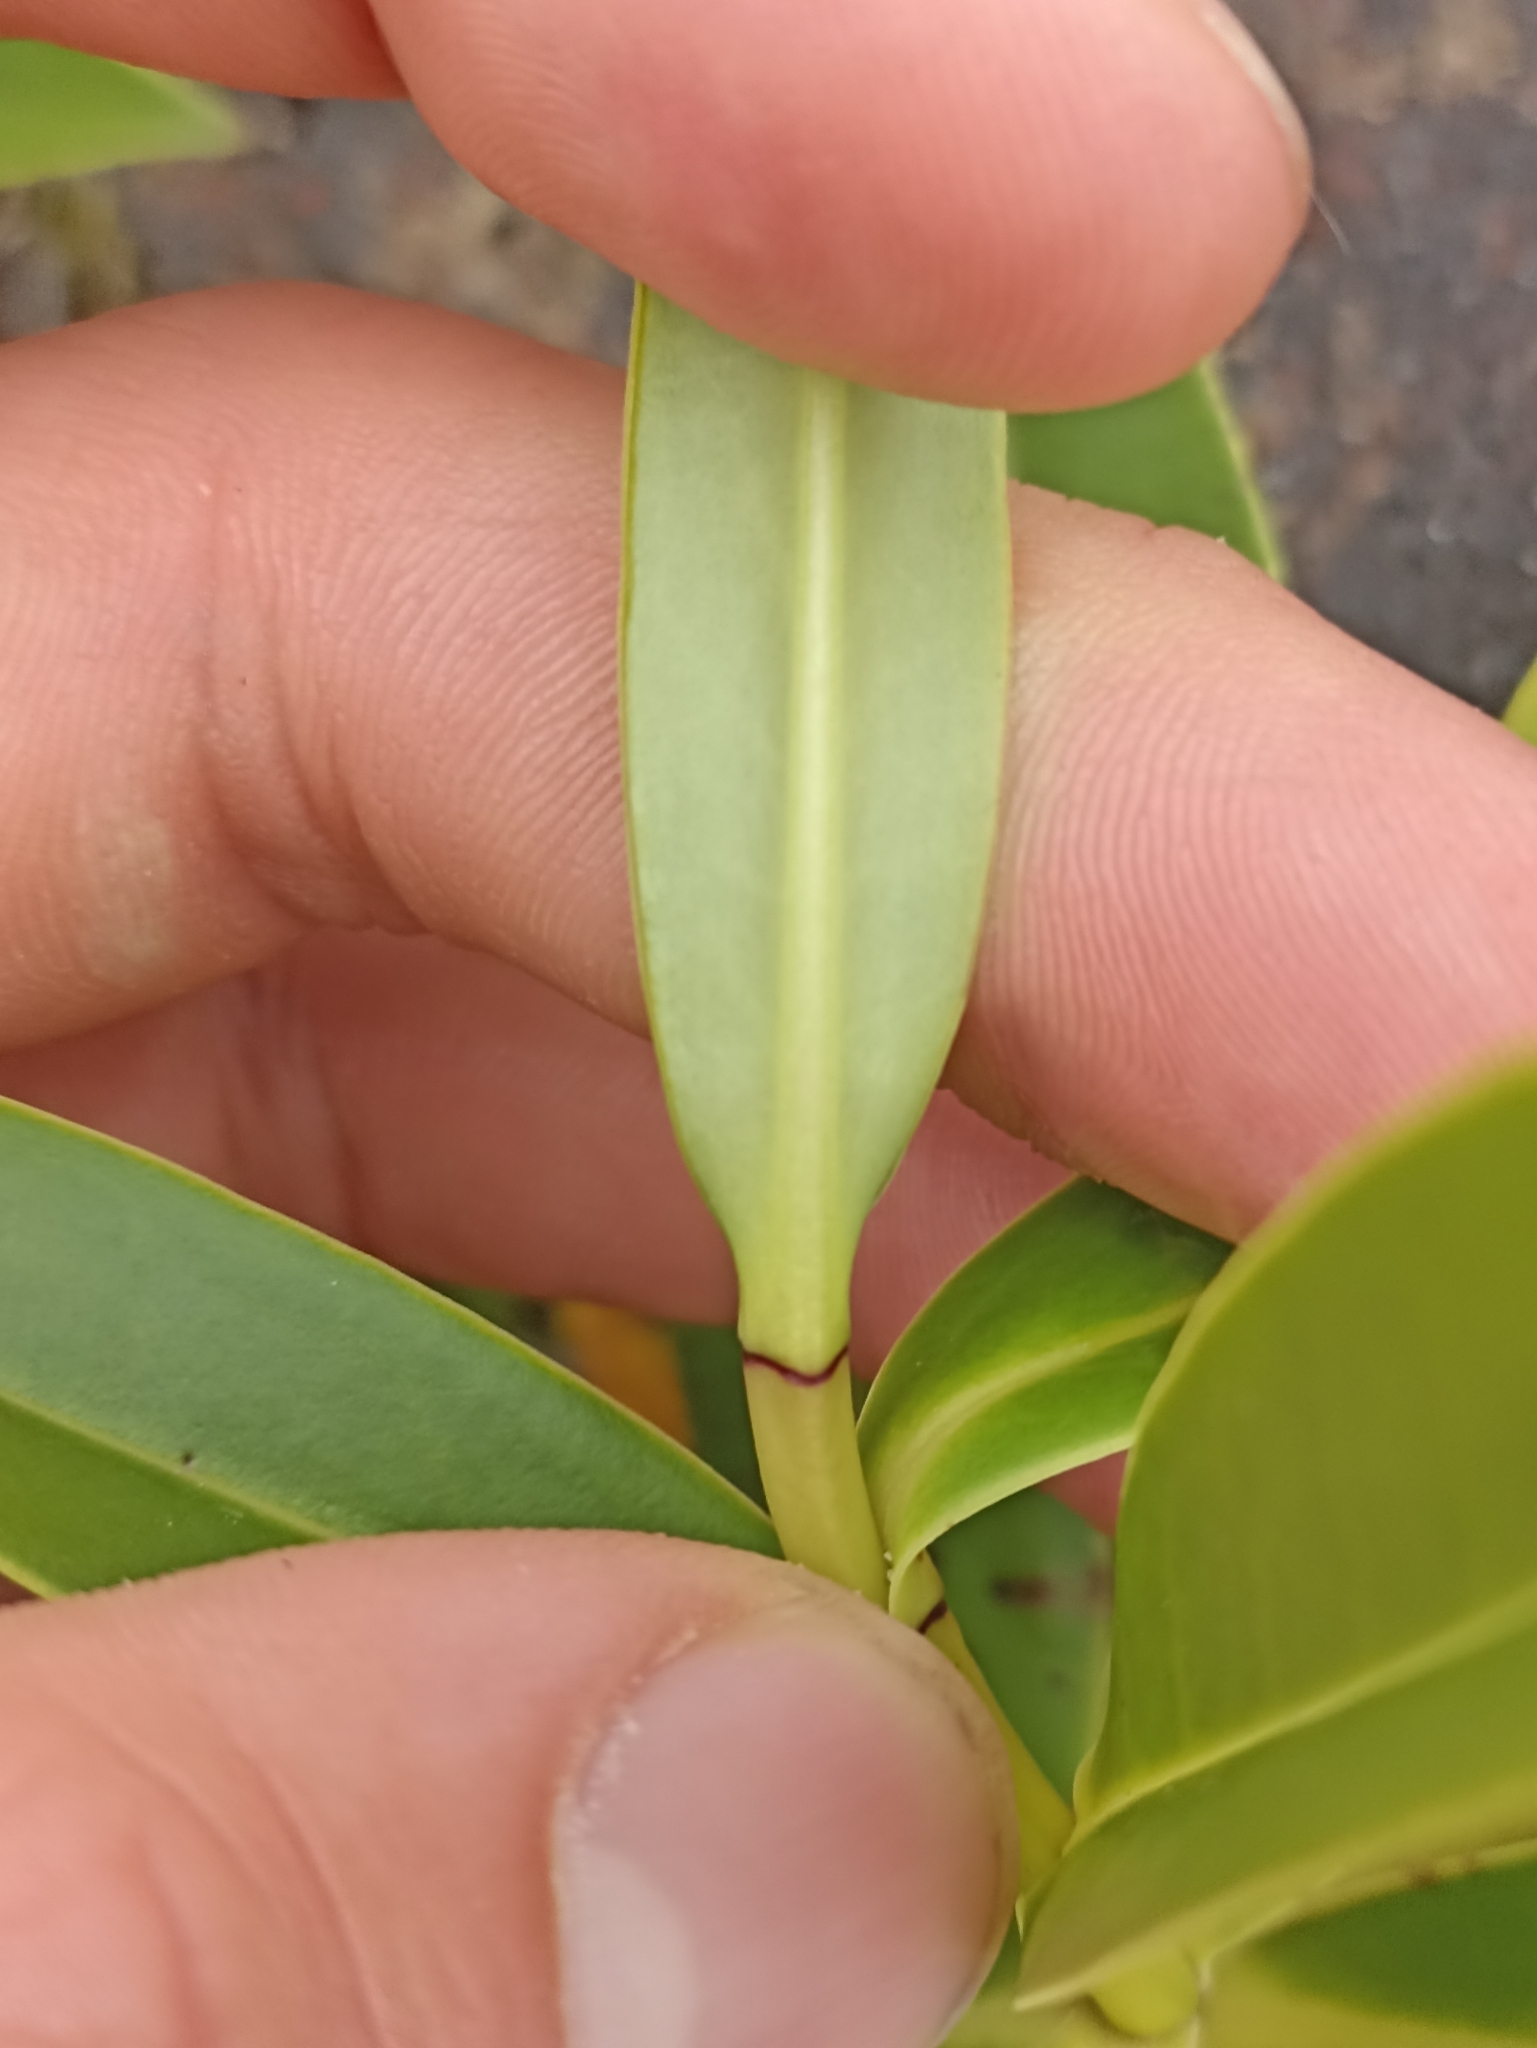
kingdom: Plantae
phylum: Tracheophyta
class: Magnoliopsida
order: Lamiales
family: Plantaginaceae
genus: Veronica
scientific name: Veronica stricta
